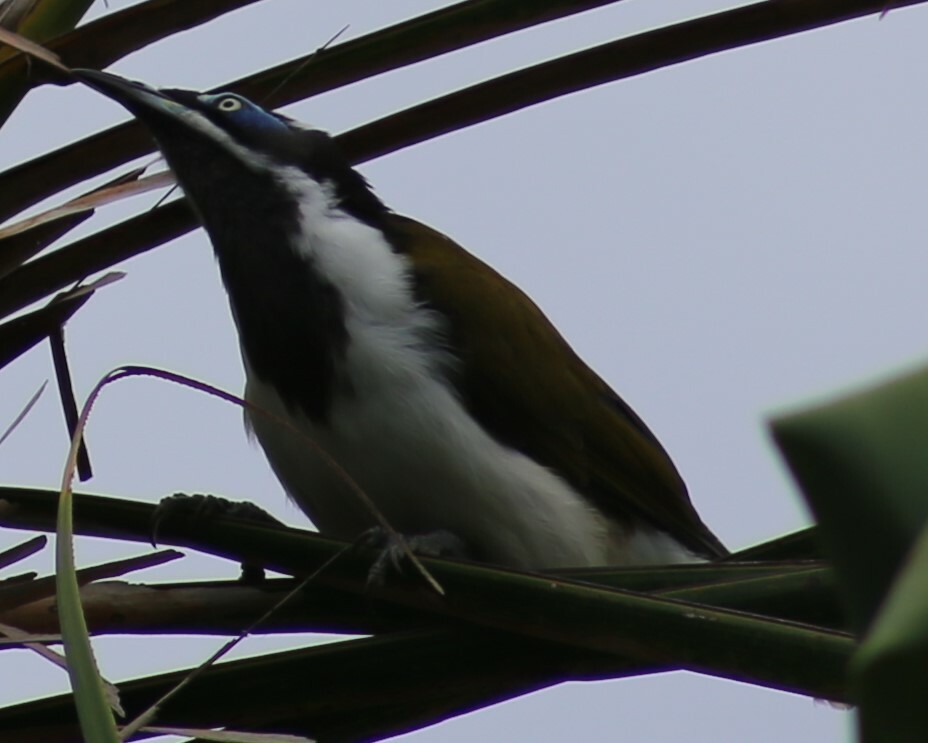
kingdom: Animalia
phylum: Chordata
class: Aves
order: Passeriformes
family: Meliphagidae
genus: Entomyzon
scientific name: Entomyzon cyanotis
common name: Blue-faced honeyeater
